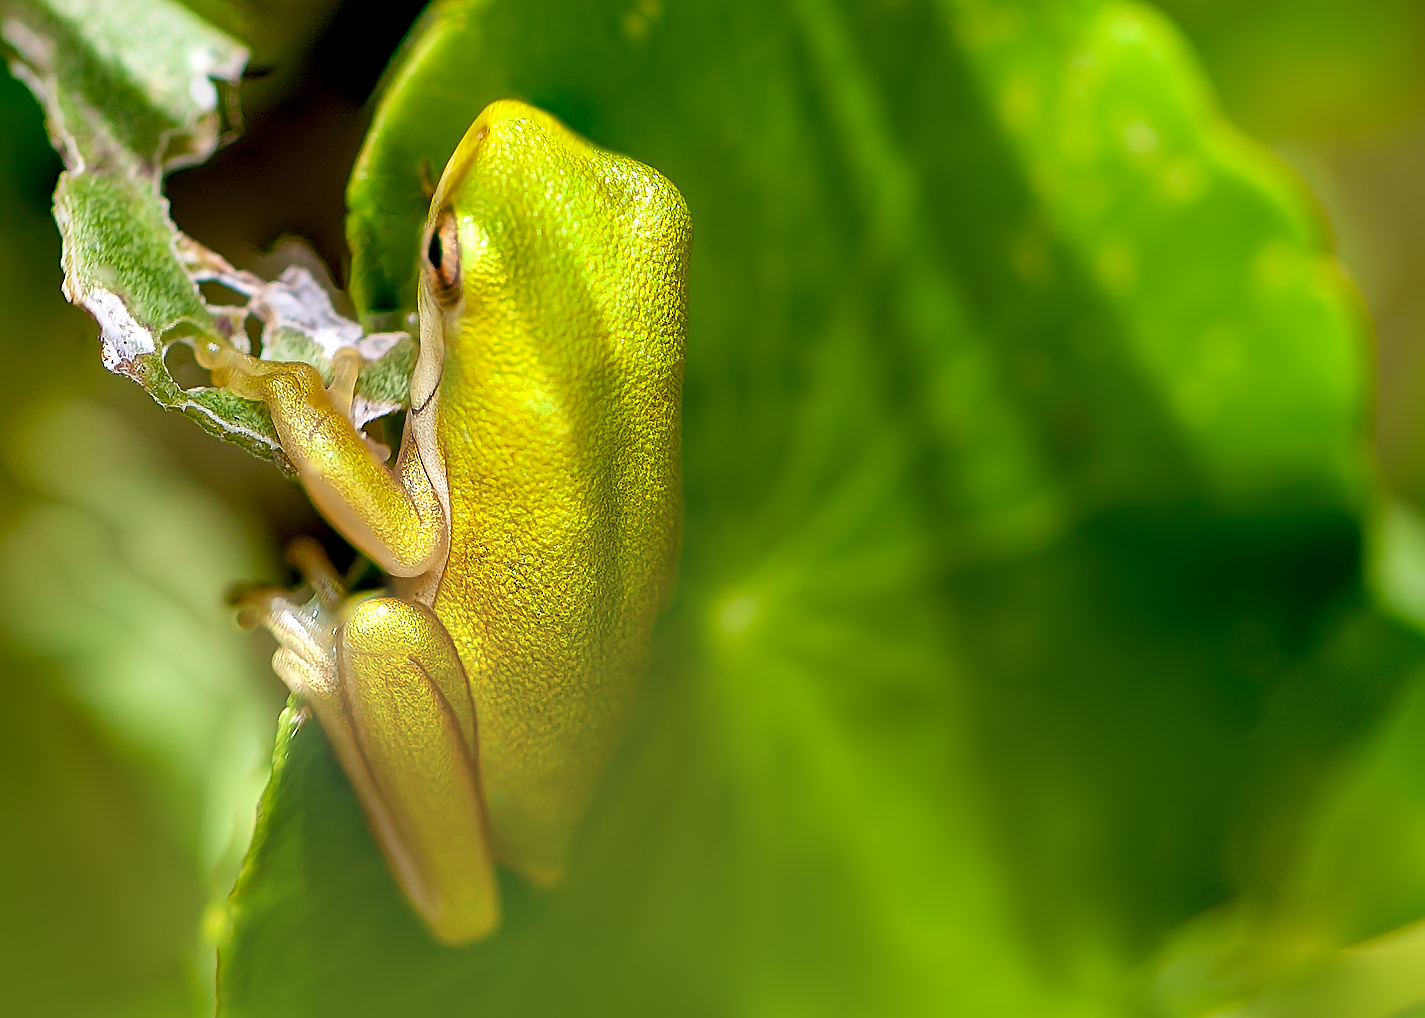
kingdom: Animalia
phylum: Chordata
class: Amphibia
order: Anura
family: Hylidae
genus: Dryophytes
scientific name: Dryophytes cinereus
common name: Green treefrog
